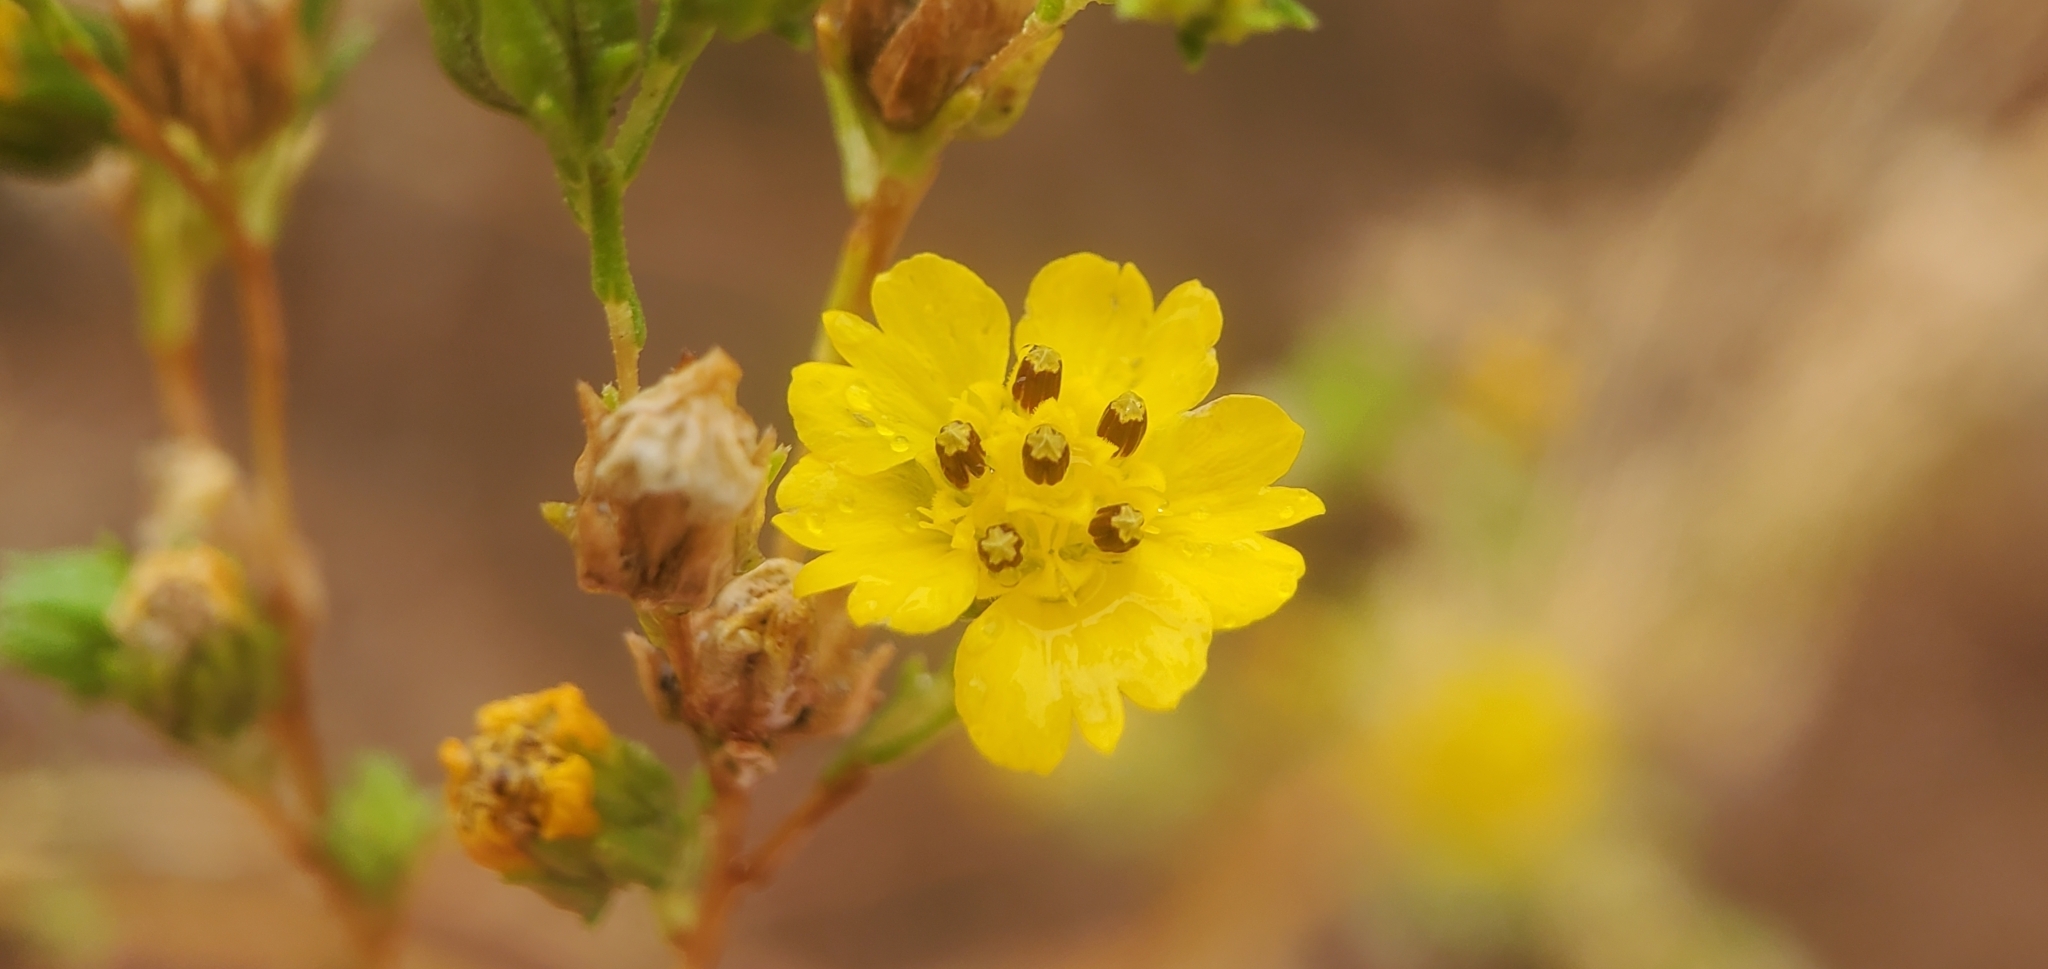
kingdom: Plantae
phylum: Tracheophyta
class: Magnoliopsida
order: Asterales
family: Asteraceae
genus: Deinandra
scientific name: Deinandra fasciculata
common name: Clustered tarweed
